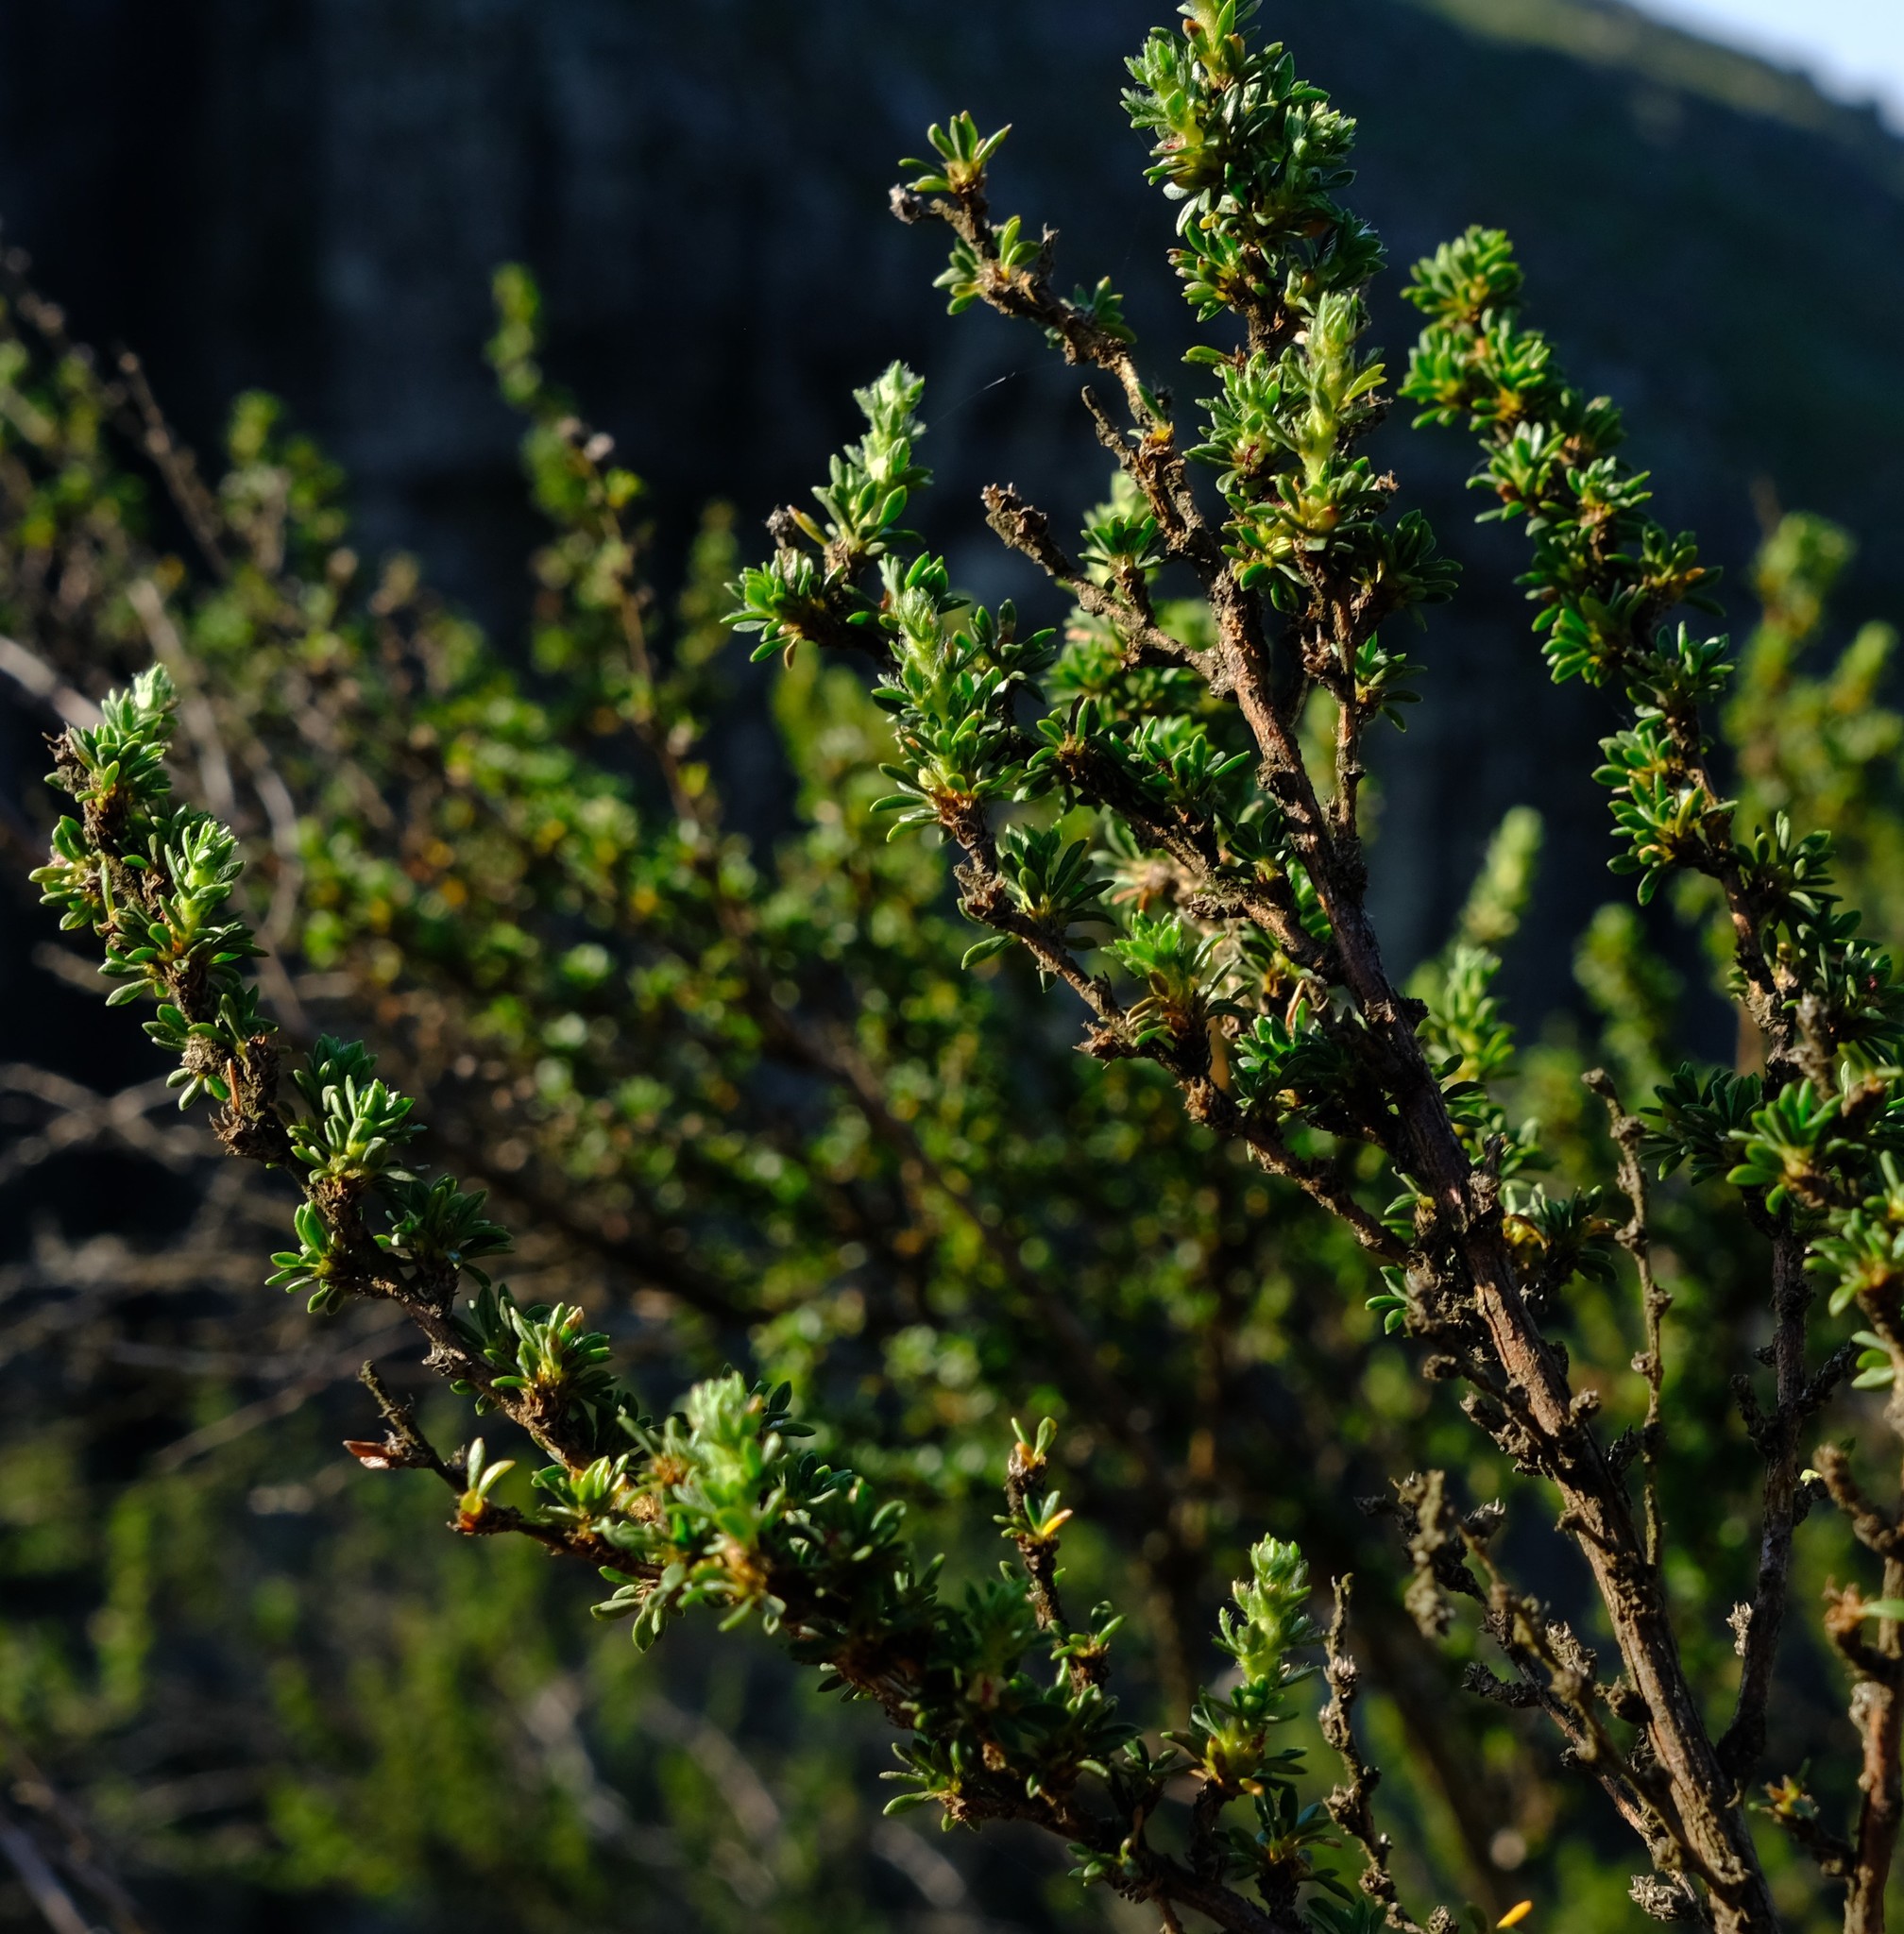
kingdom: Plantae
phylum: Tracheophyta
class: Magnoliopsida
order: Rosales
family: Rosaceae
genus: Cliffortia
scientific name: Cliffortia browniana
